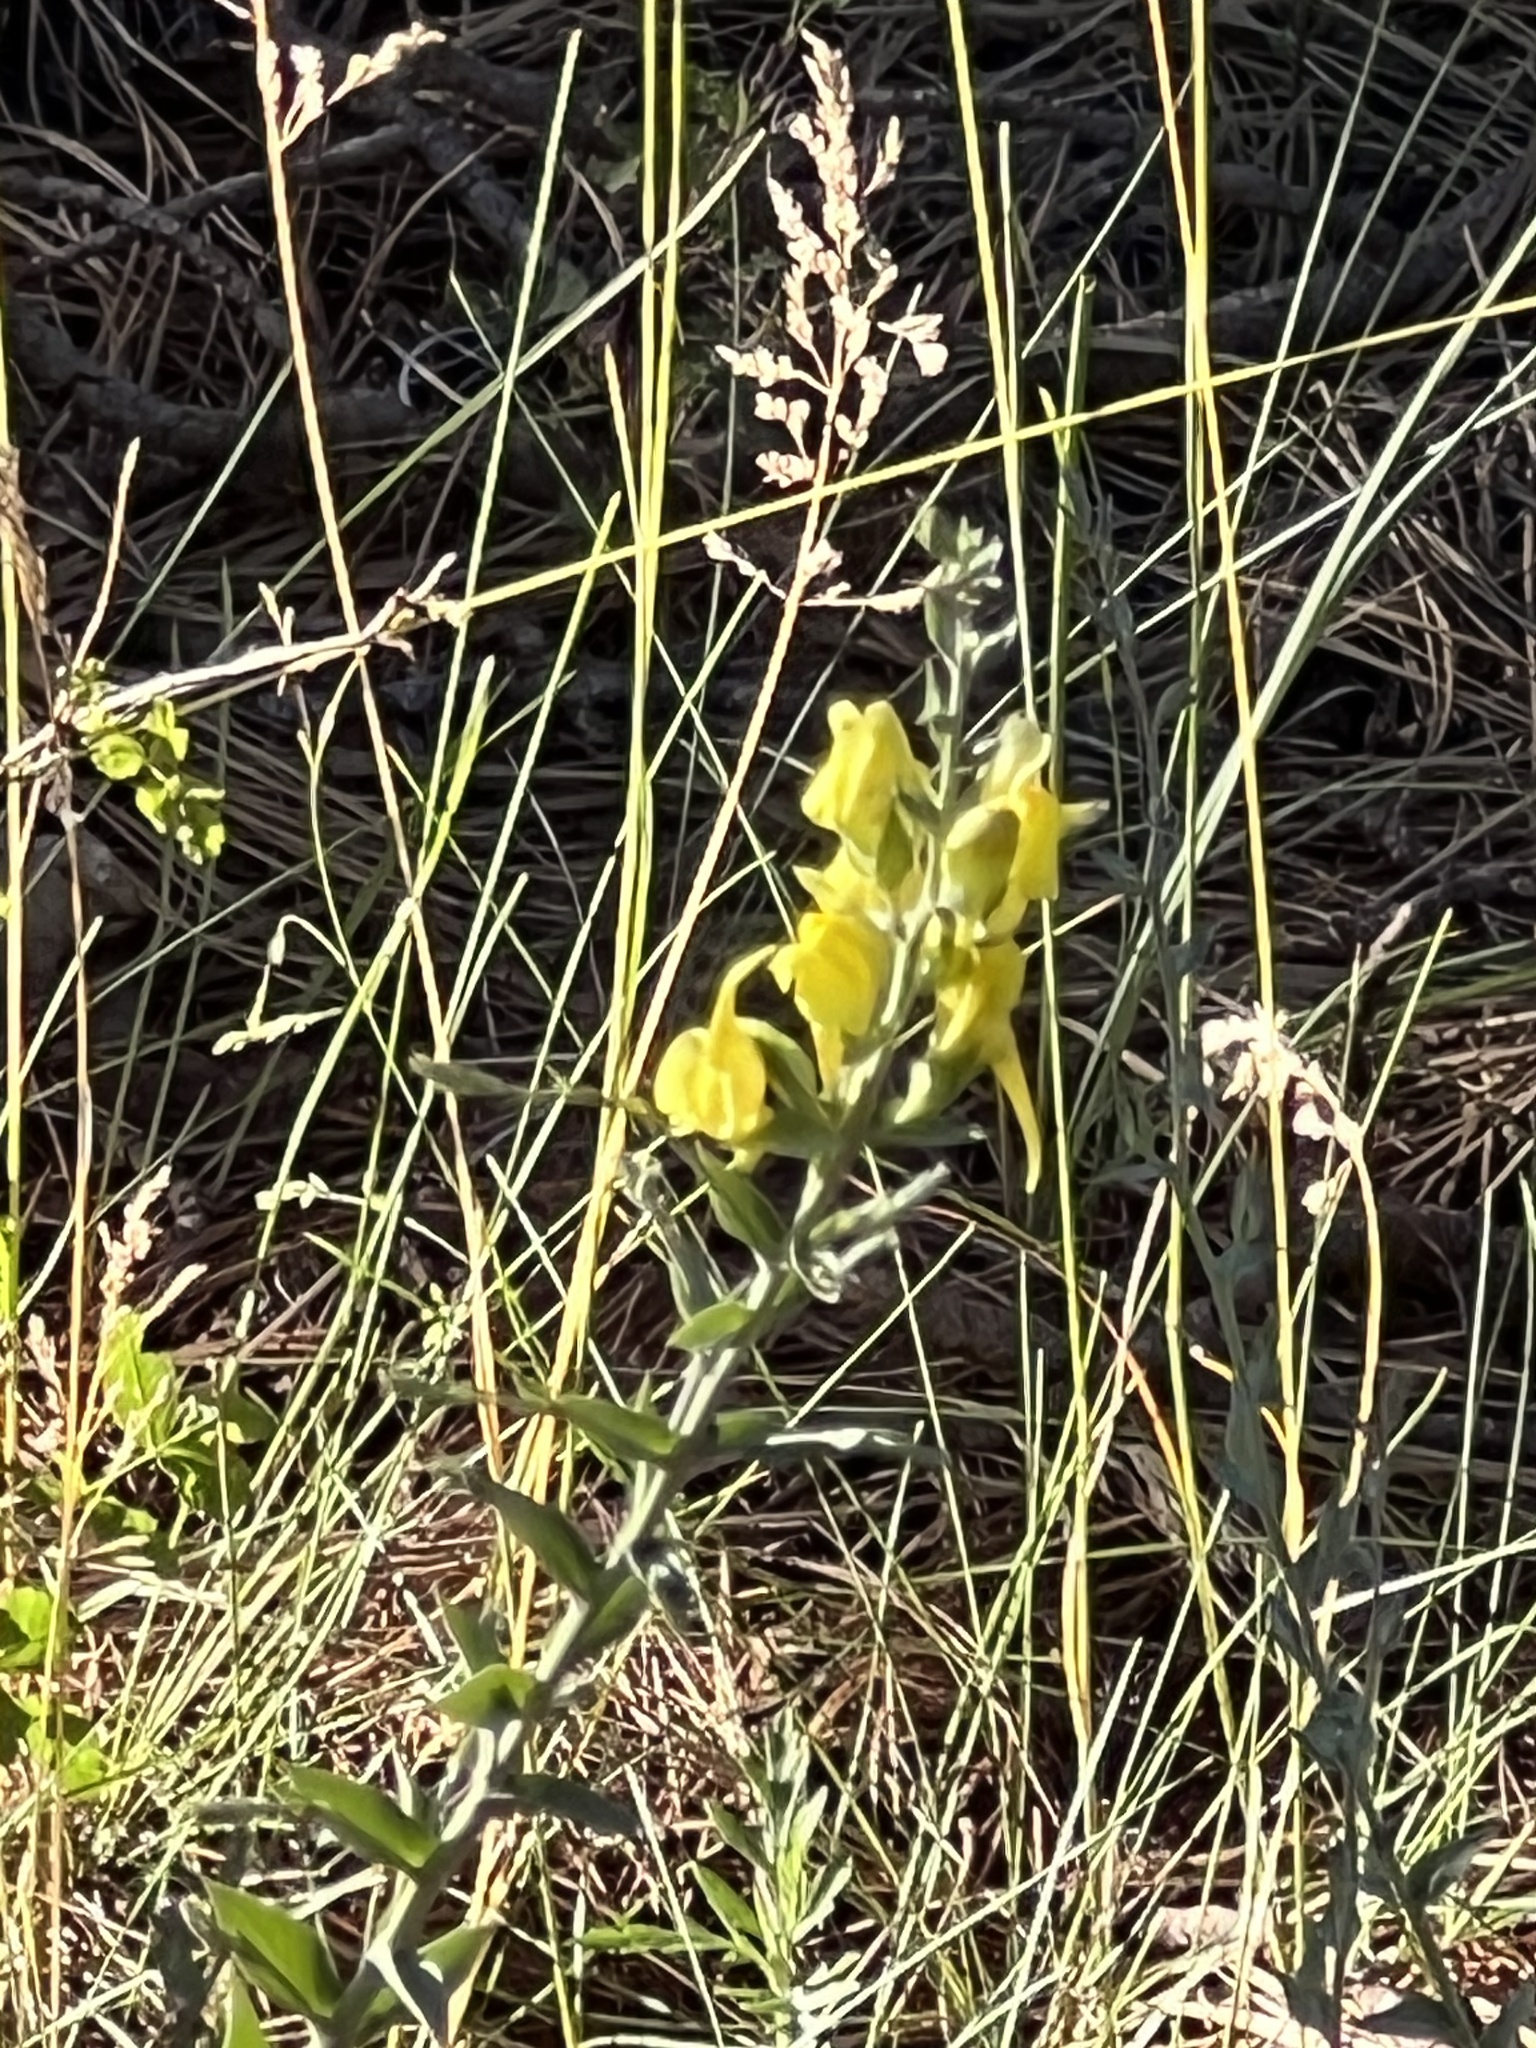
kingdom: Plantae
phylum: Tracheophyta
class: Magnoliopsida
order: Lamiales
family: Plantaginaceae
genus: Linaria
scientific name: Linaria dalmatica
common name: Dalmatian toadflax
